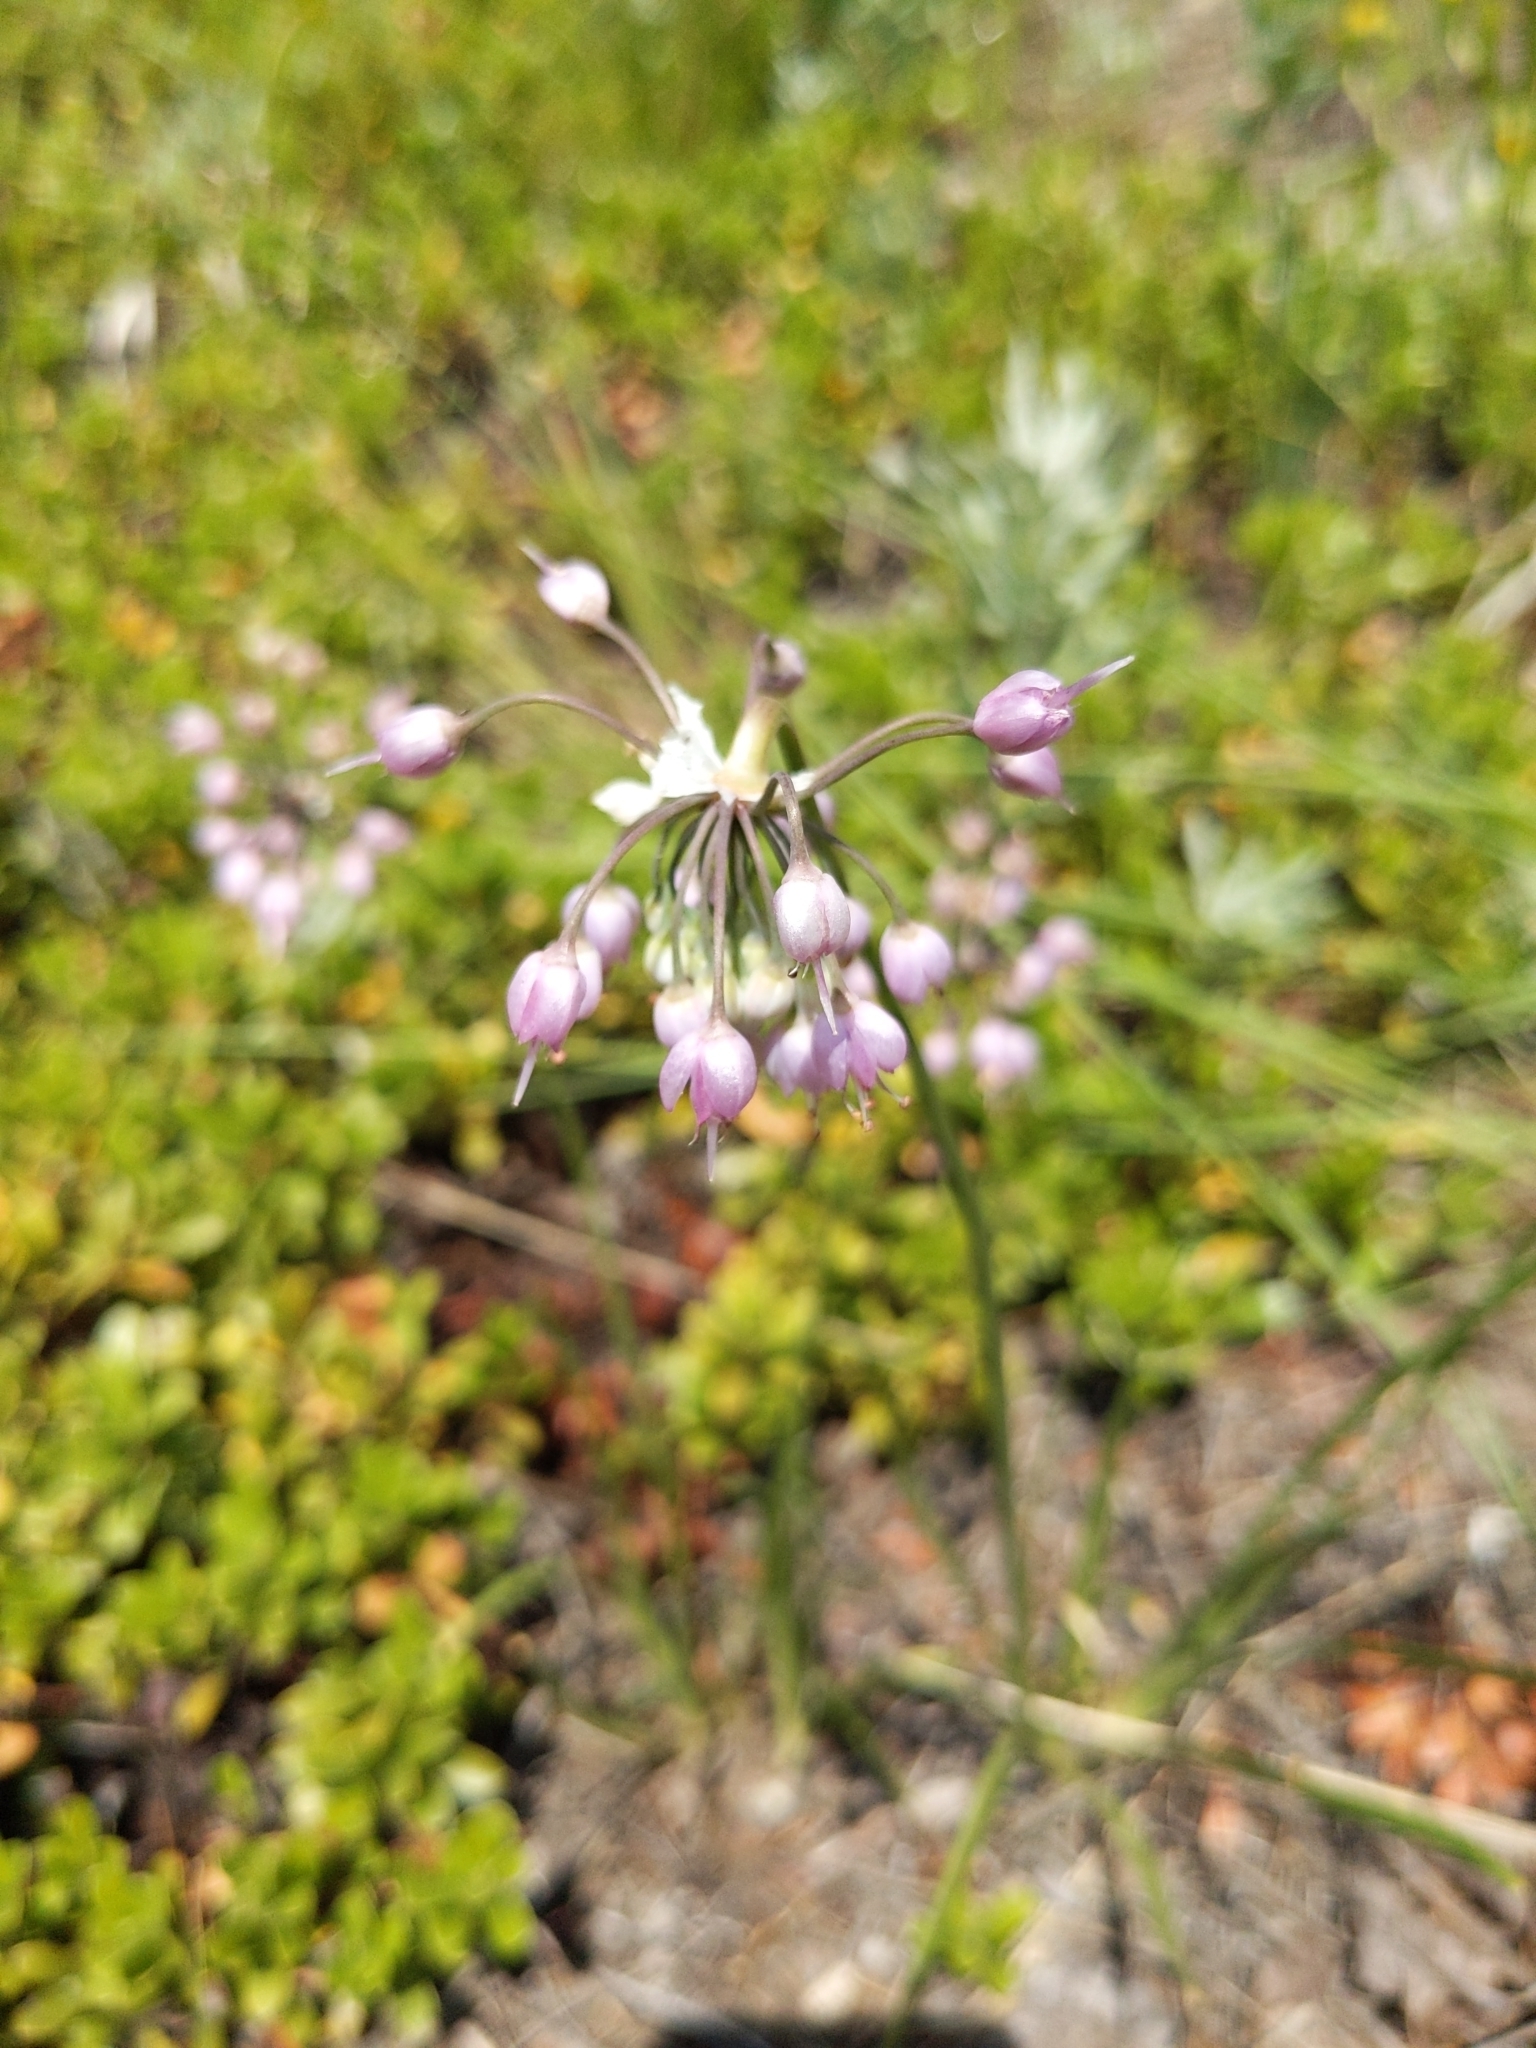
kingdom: Plantae
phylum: Tracheophyta
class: Liliopsida
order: Asparagales
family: Amaryllidaceae
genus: Allium
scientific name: Allium cernuum
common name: Nodding onion
